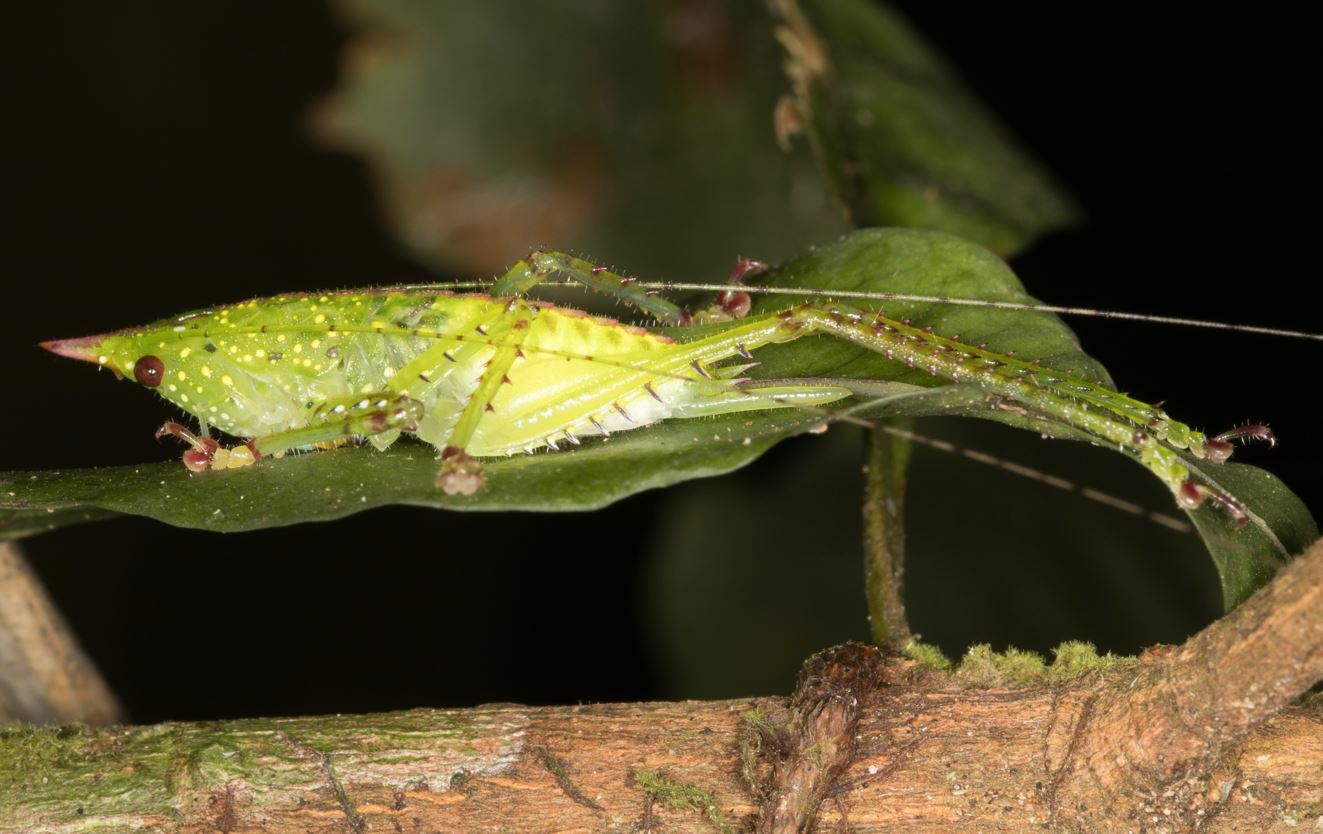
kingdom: Animalia
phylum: Arthropoda
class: Insecta
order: Orthoptera
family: Tettigoniidae
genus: Copiphora
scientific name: Copiphora gracilis
